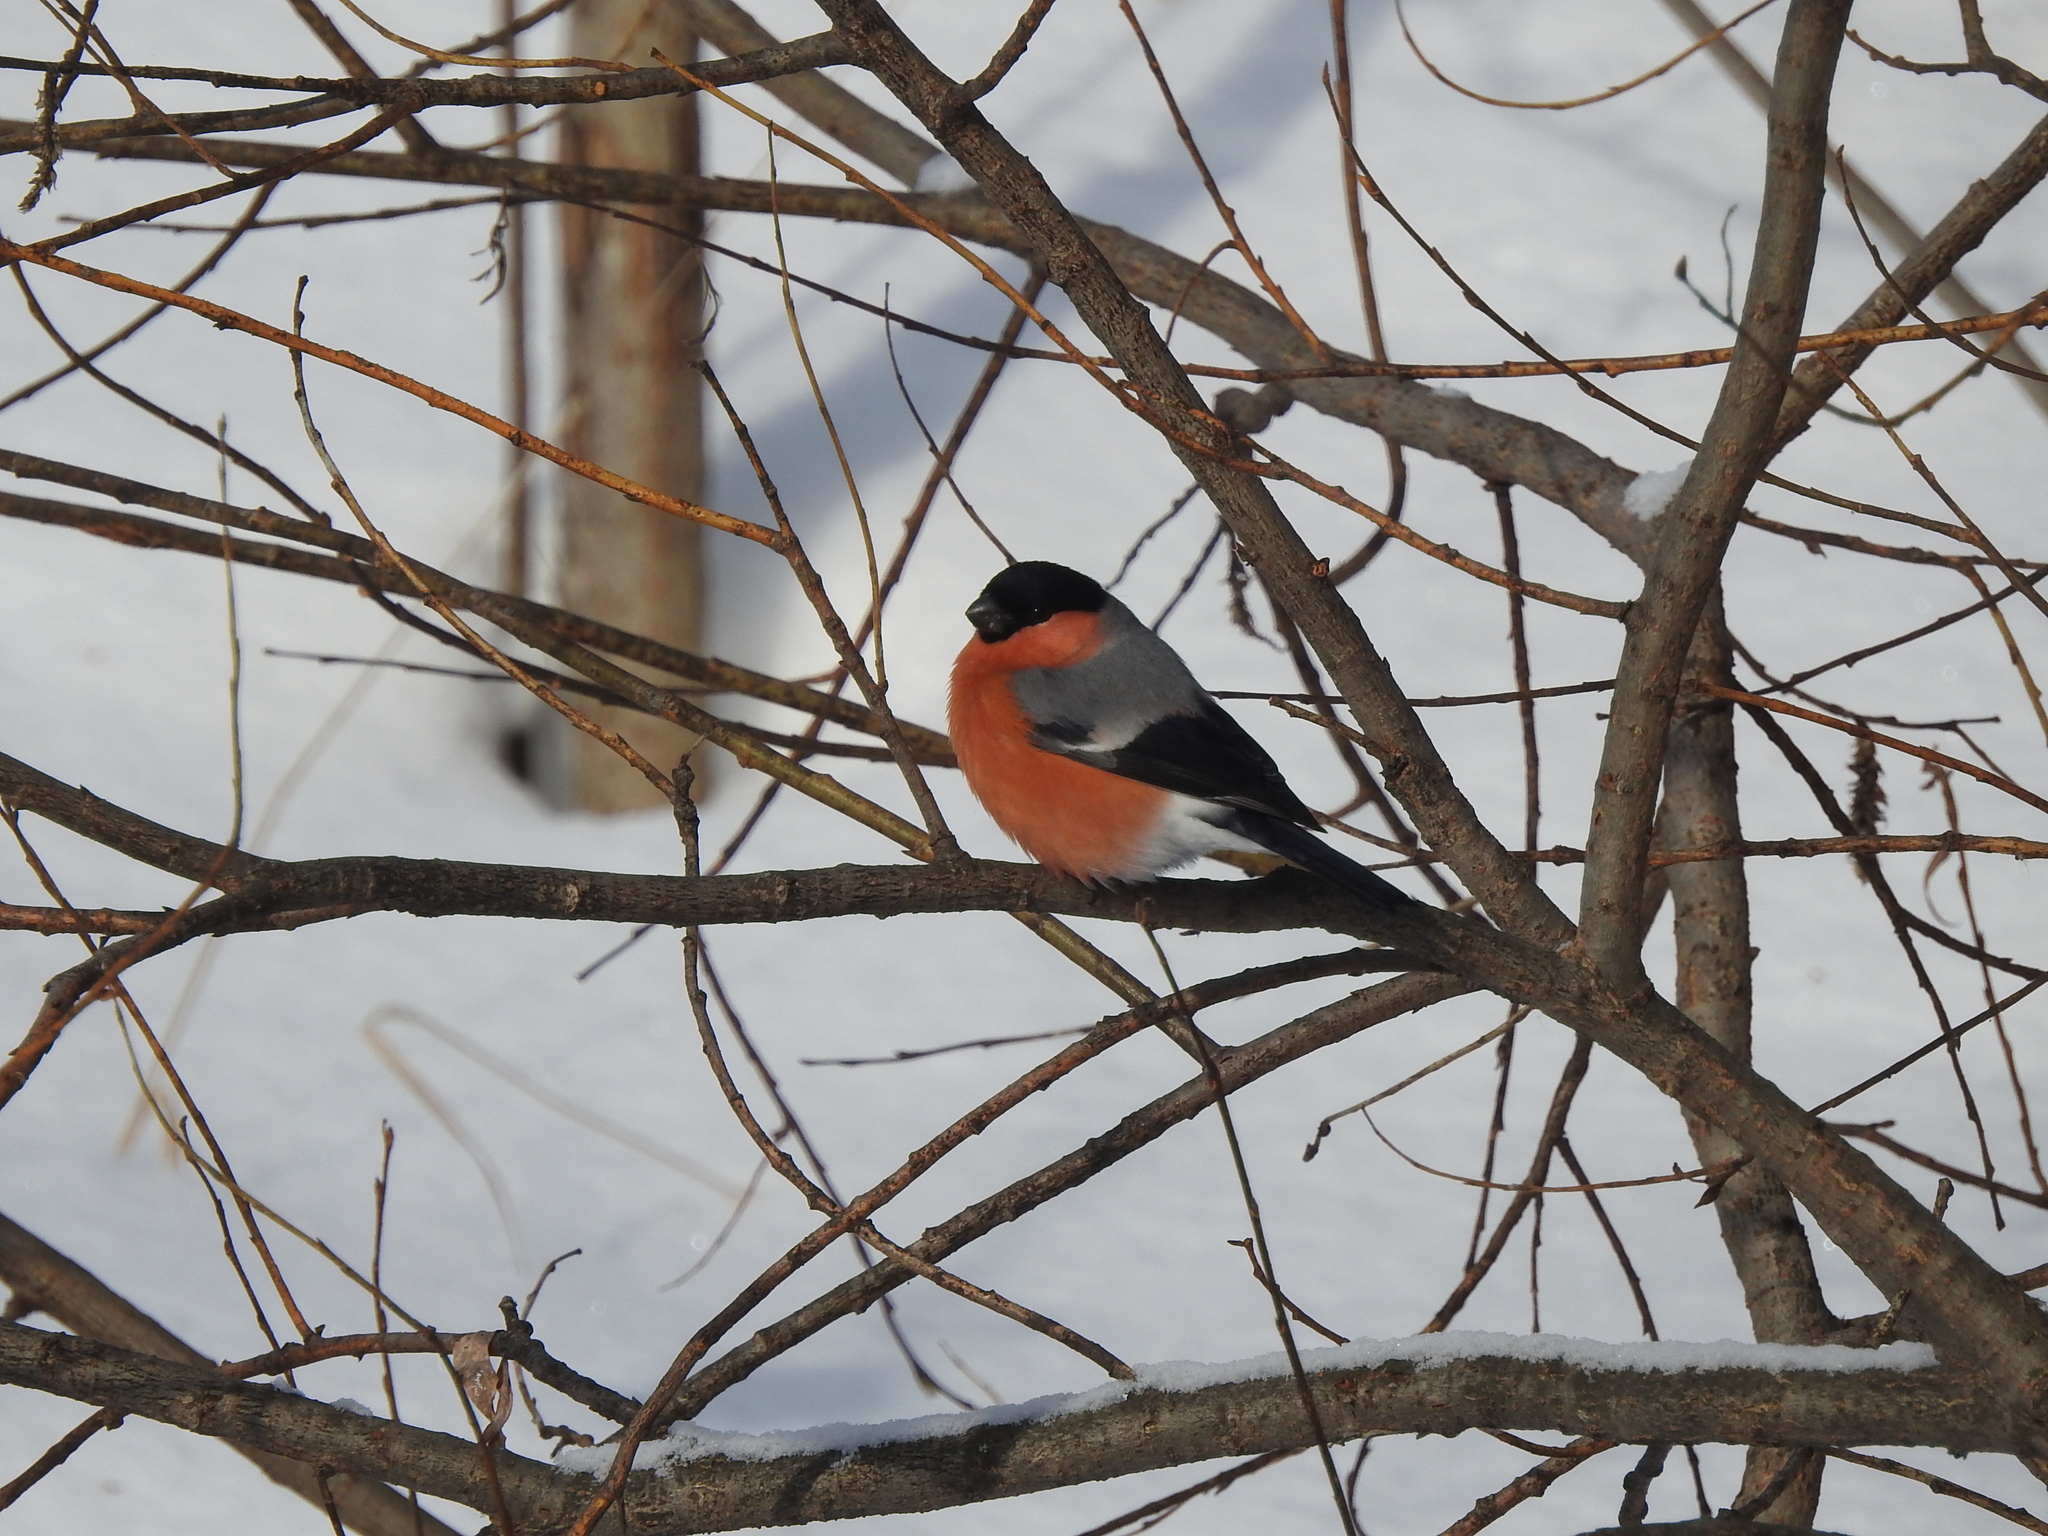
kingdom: Animalia
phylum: Chordata
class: Aves
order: Passeriformes
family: Fringillidae
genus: Pyrrhula
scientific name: Pyrrhula pyrrhula
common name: Eurasian bullfinch
